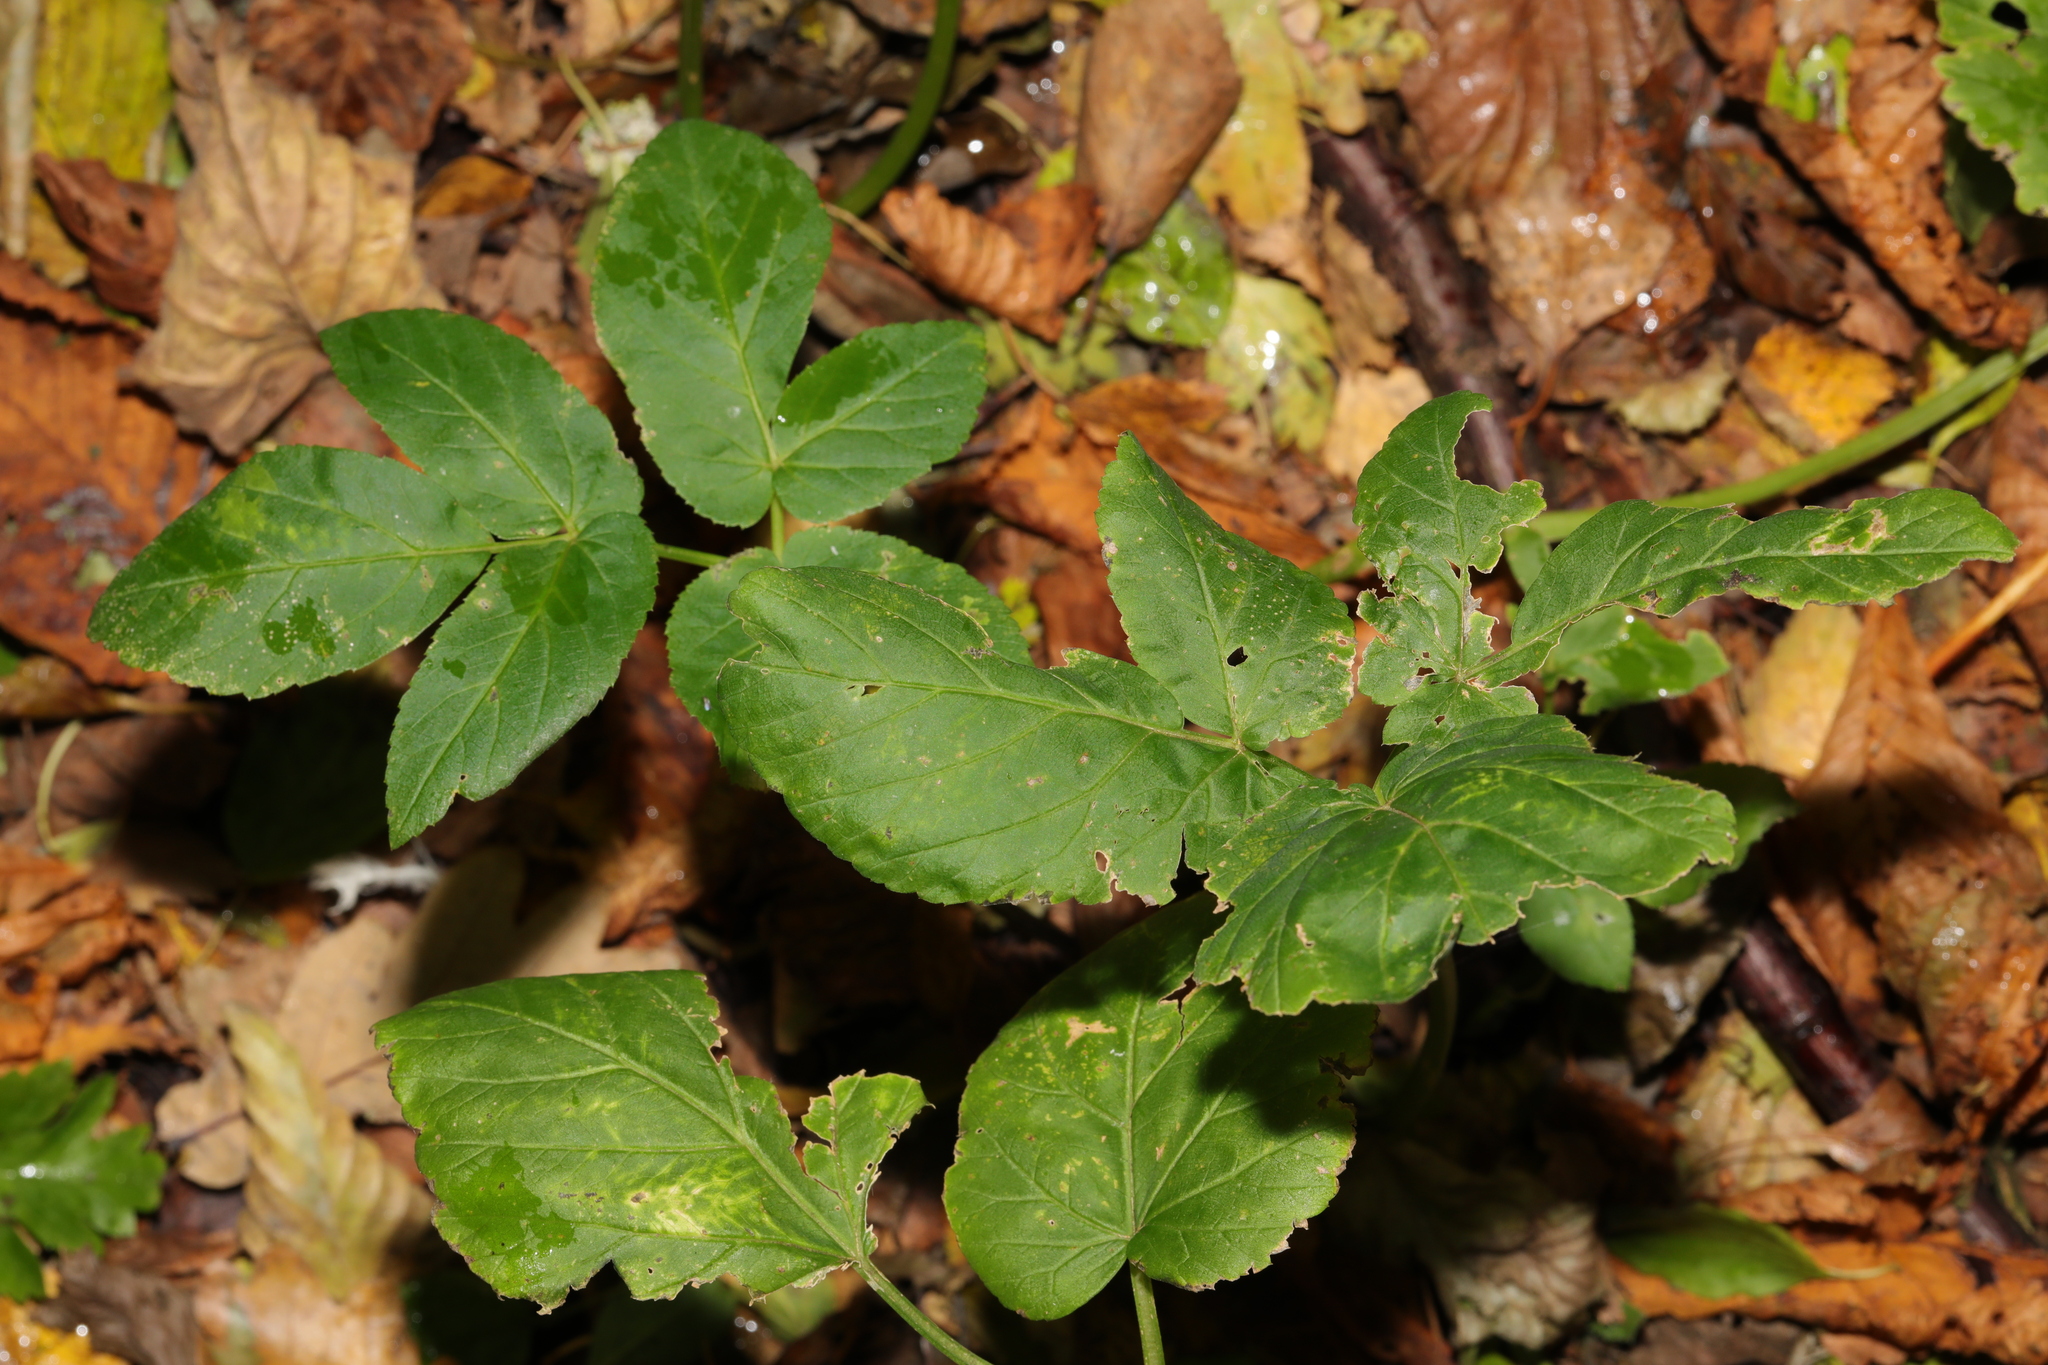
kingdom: Plantae
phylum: Tracheophyta
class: Magnoliopsida
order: Apiales
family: Apiaceae
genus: Aegopodium
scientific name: Aegopodium podagraria
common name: Ground-elder
